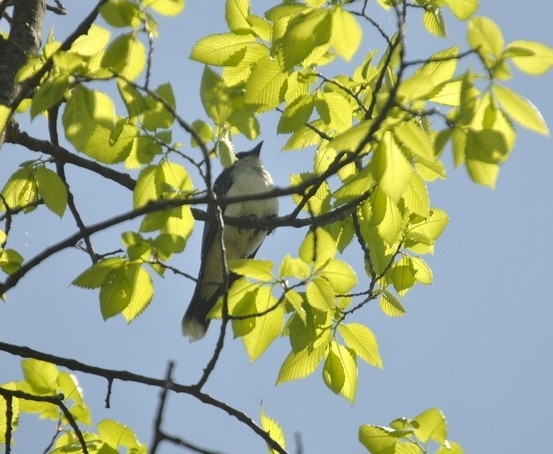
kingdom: Animalia
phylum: Chordata
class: Aves
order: Passeriformes
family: Tyrannidae
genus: Tyrannus
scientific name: Tyrannus tyrannus
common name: Eastern kingbird
